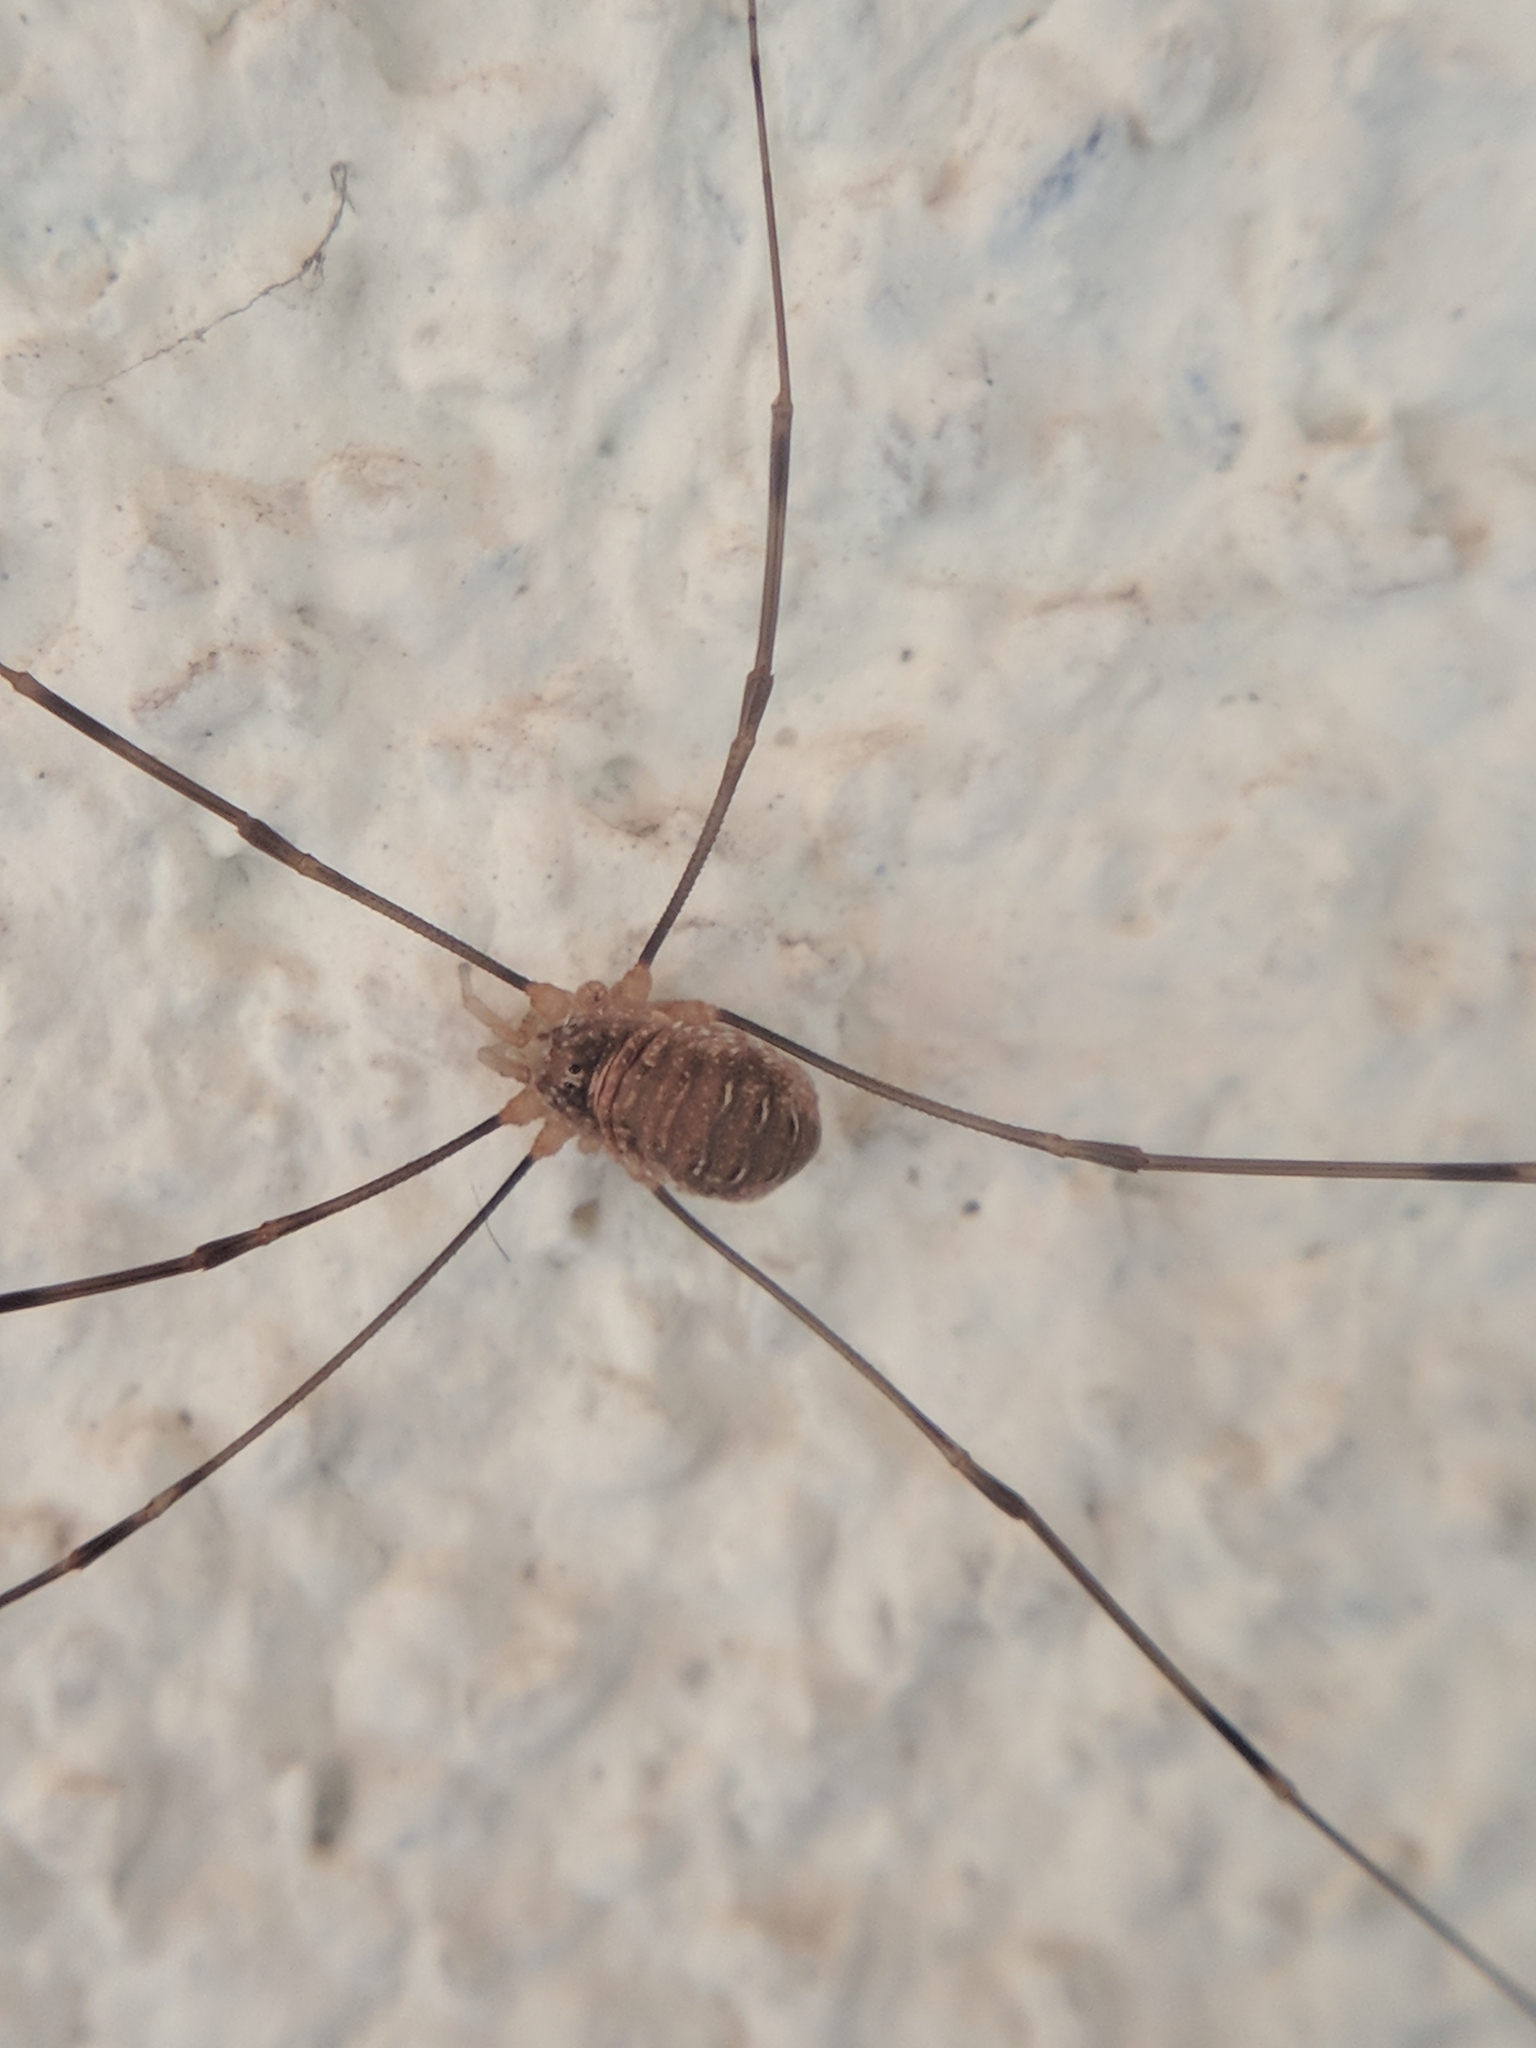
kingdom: Animalia
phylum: Arthropoda
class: Arachnida
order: Opiliones
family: Phalangiidae
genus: Opilio
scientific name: Opilio canestrinii
